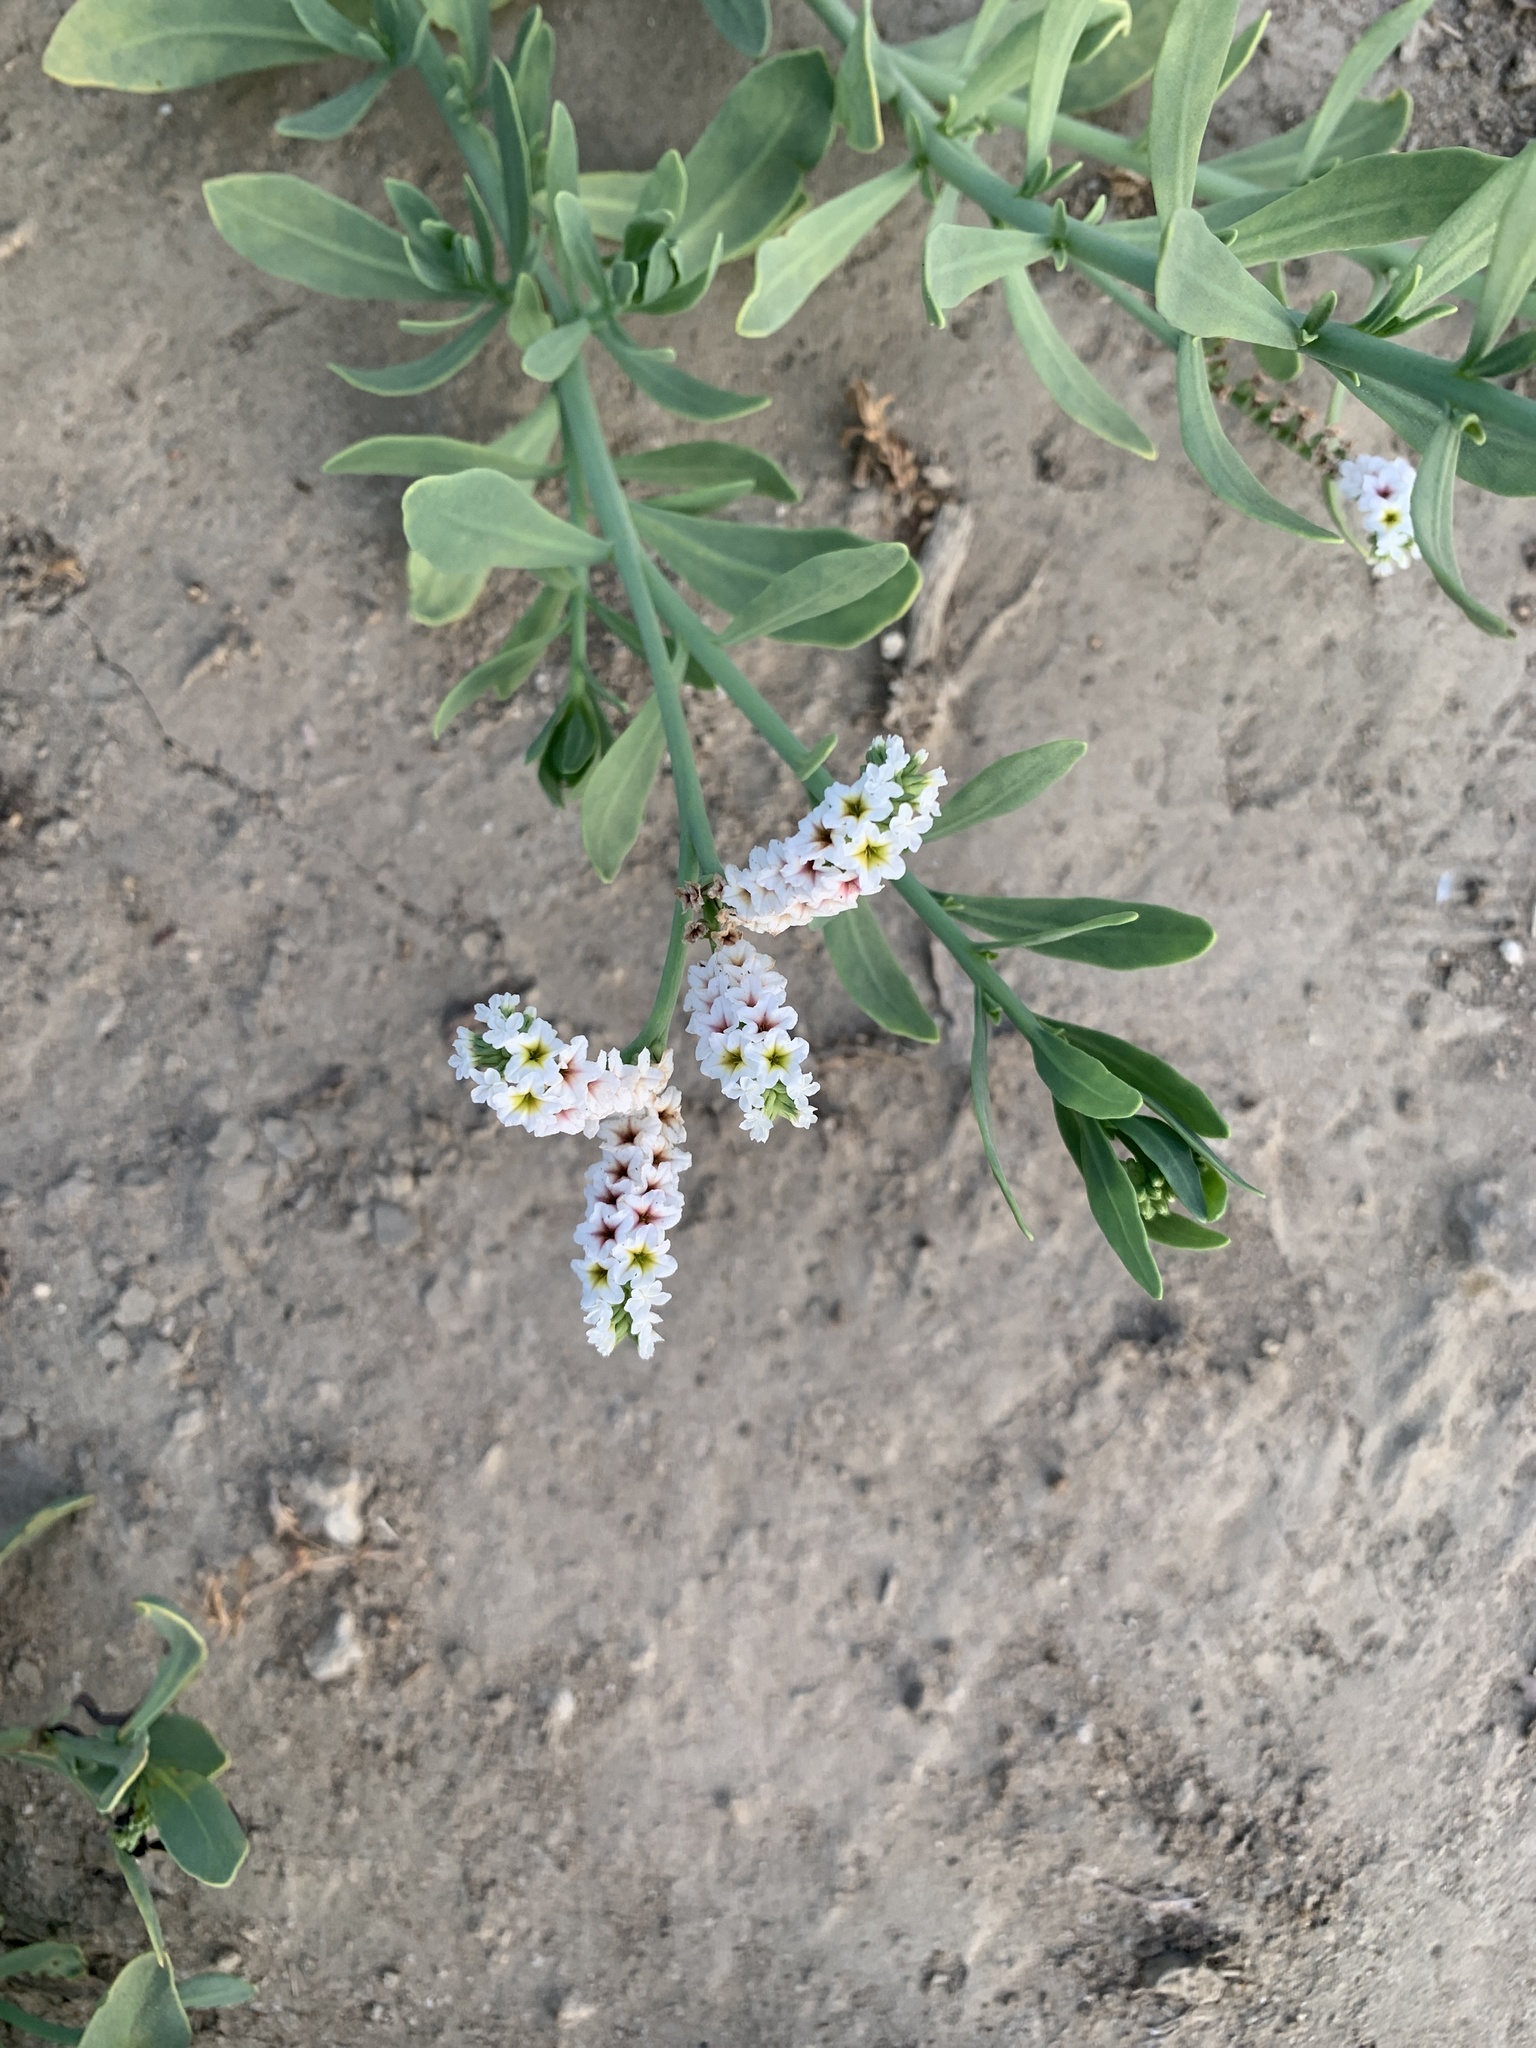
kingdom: Plantae
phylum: Tracheophyta
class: Magnoliopsida
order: Boraginales
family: Heliotropiaceae
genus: Heliotropium
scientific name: Heliotropium curassavicum
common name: Seaside heliotrope
